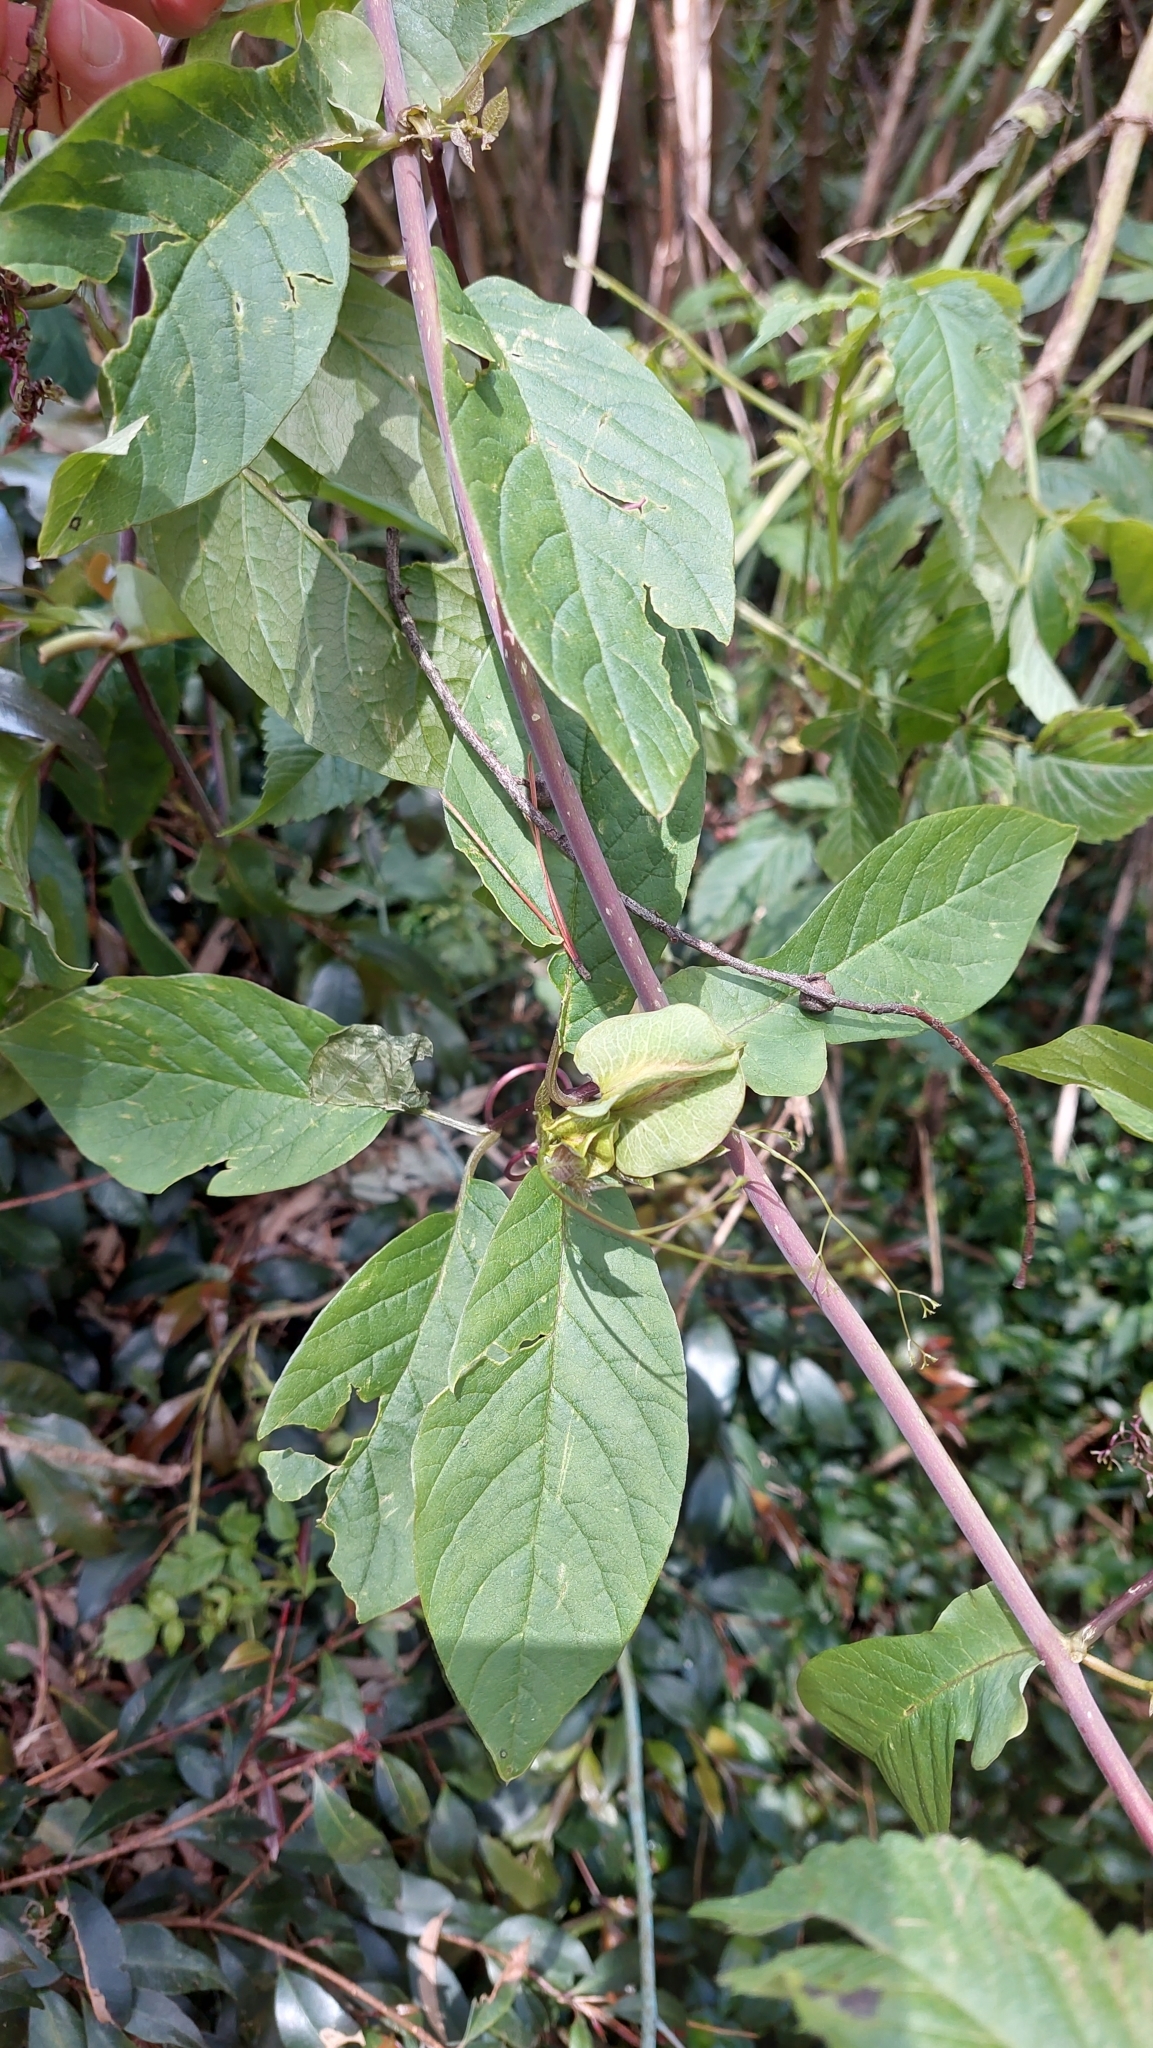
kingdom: Plantae
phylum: Tracheophyta
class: Magnoliopsida
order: Ericales
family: Polemoniaceae
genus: Cobaea
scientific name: Cobaea scandens
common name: Cup-and-saucer-vine
